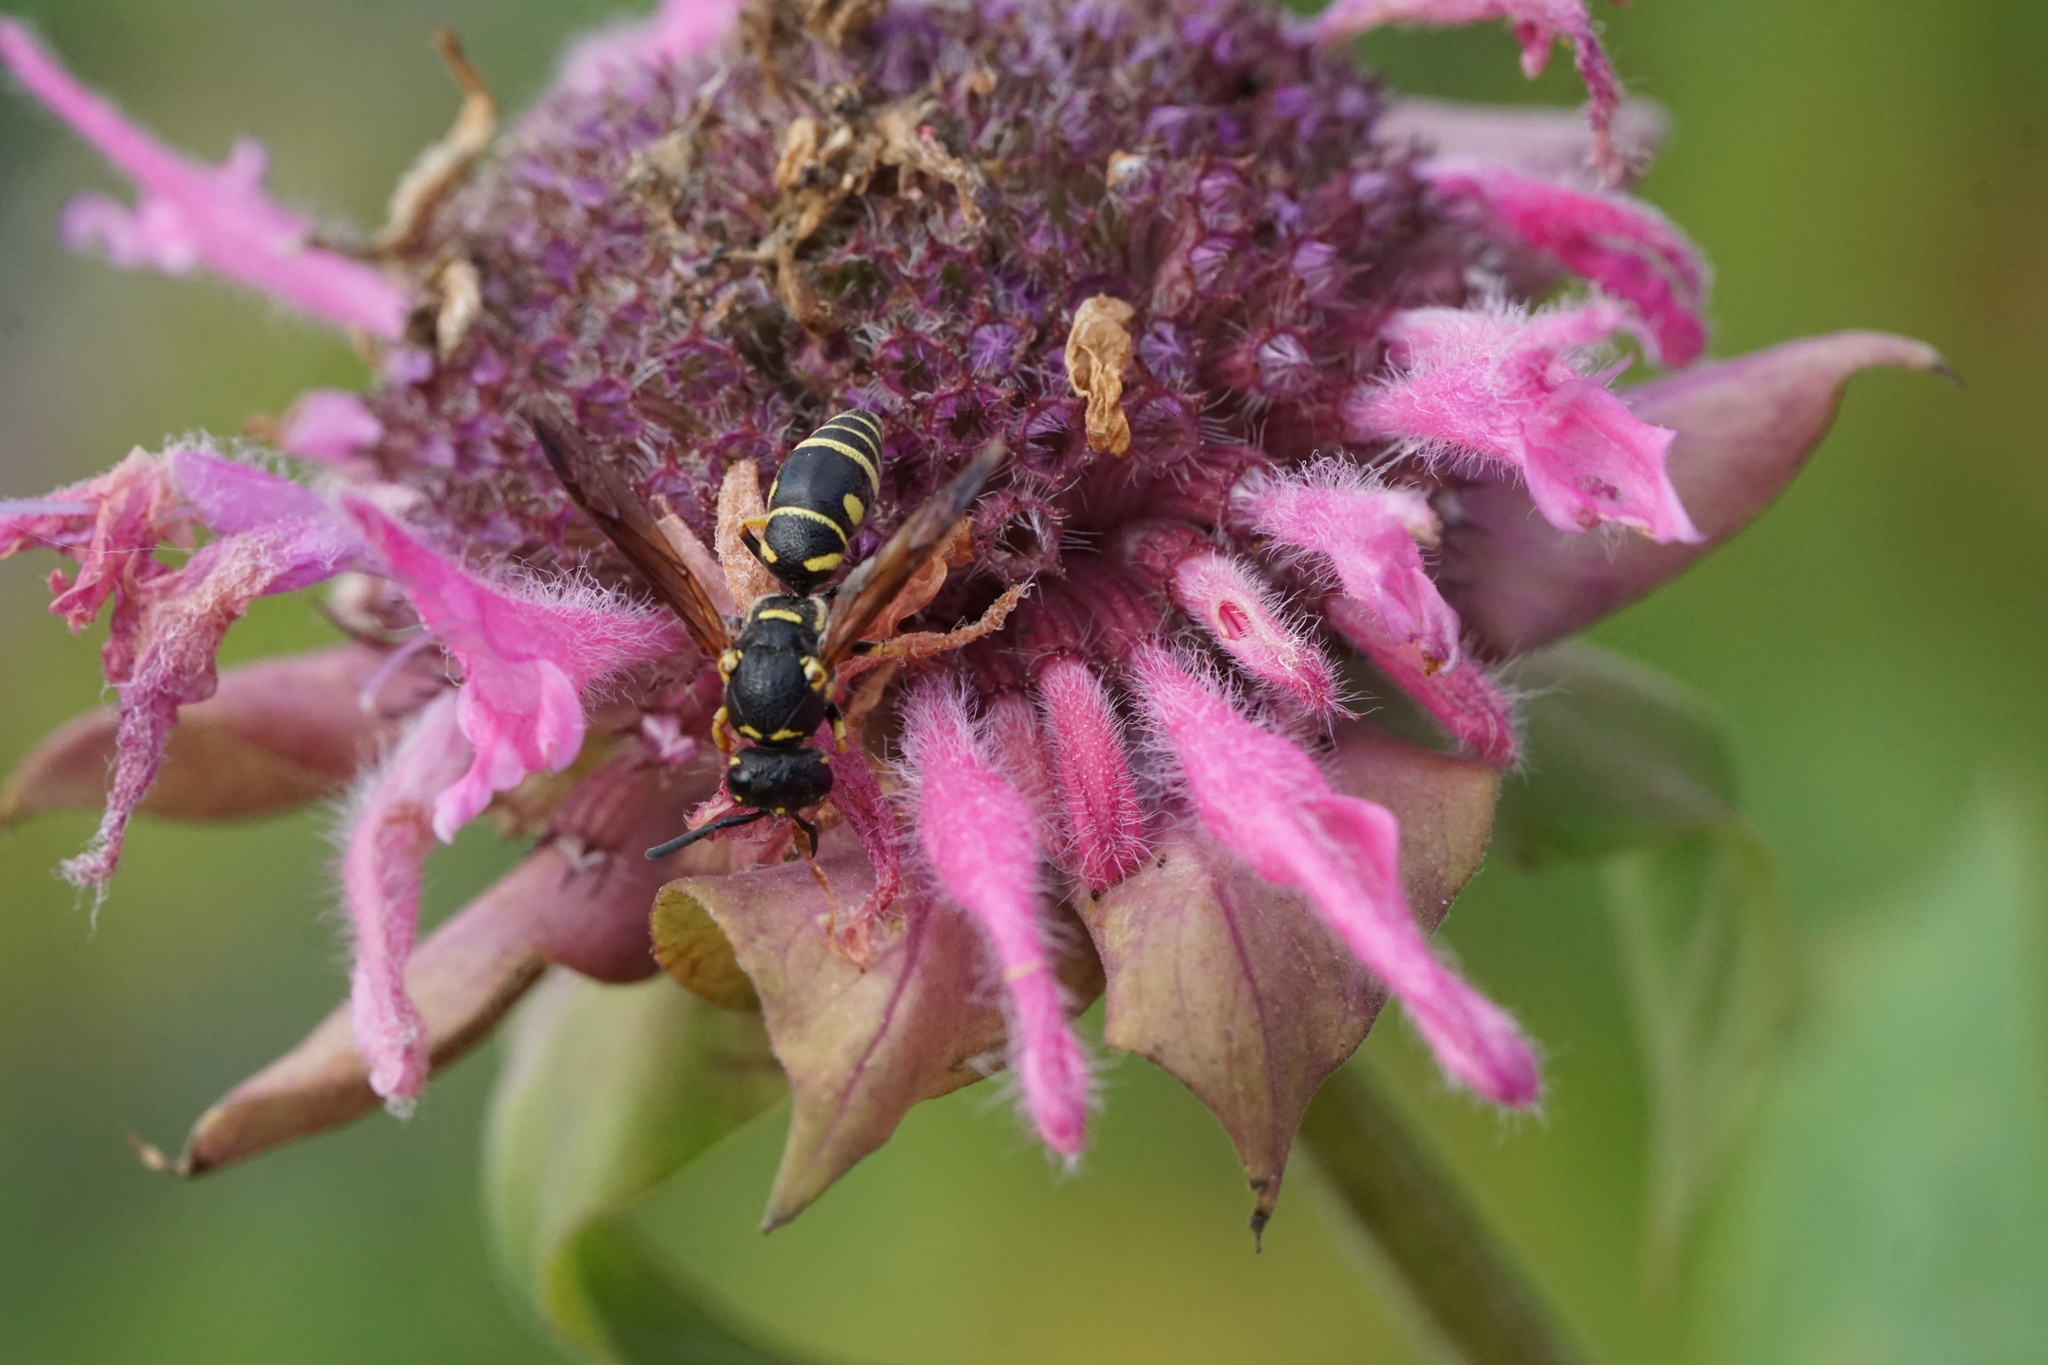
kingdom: Animalia
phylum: Arthropoda
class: Insecta
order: Hymenoptera
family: Eumenidae
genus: Parancistrocerus
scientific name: Parancistrocerus leionotus
